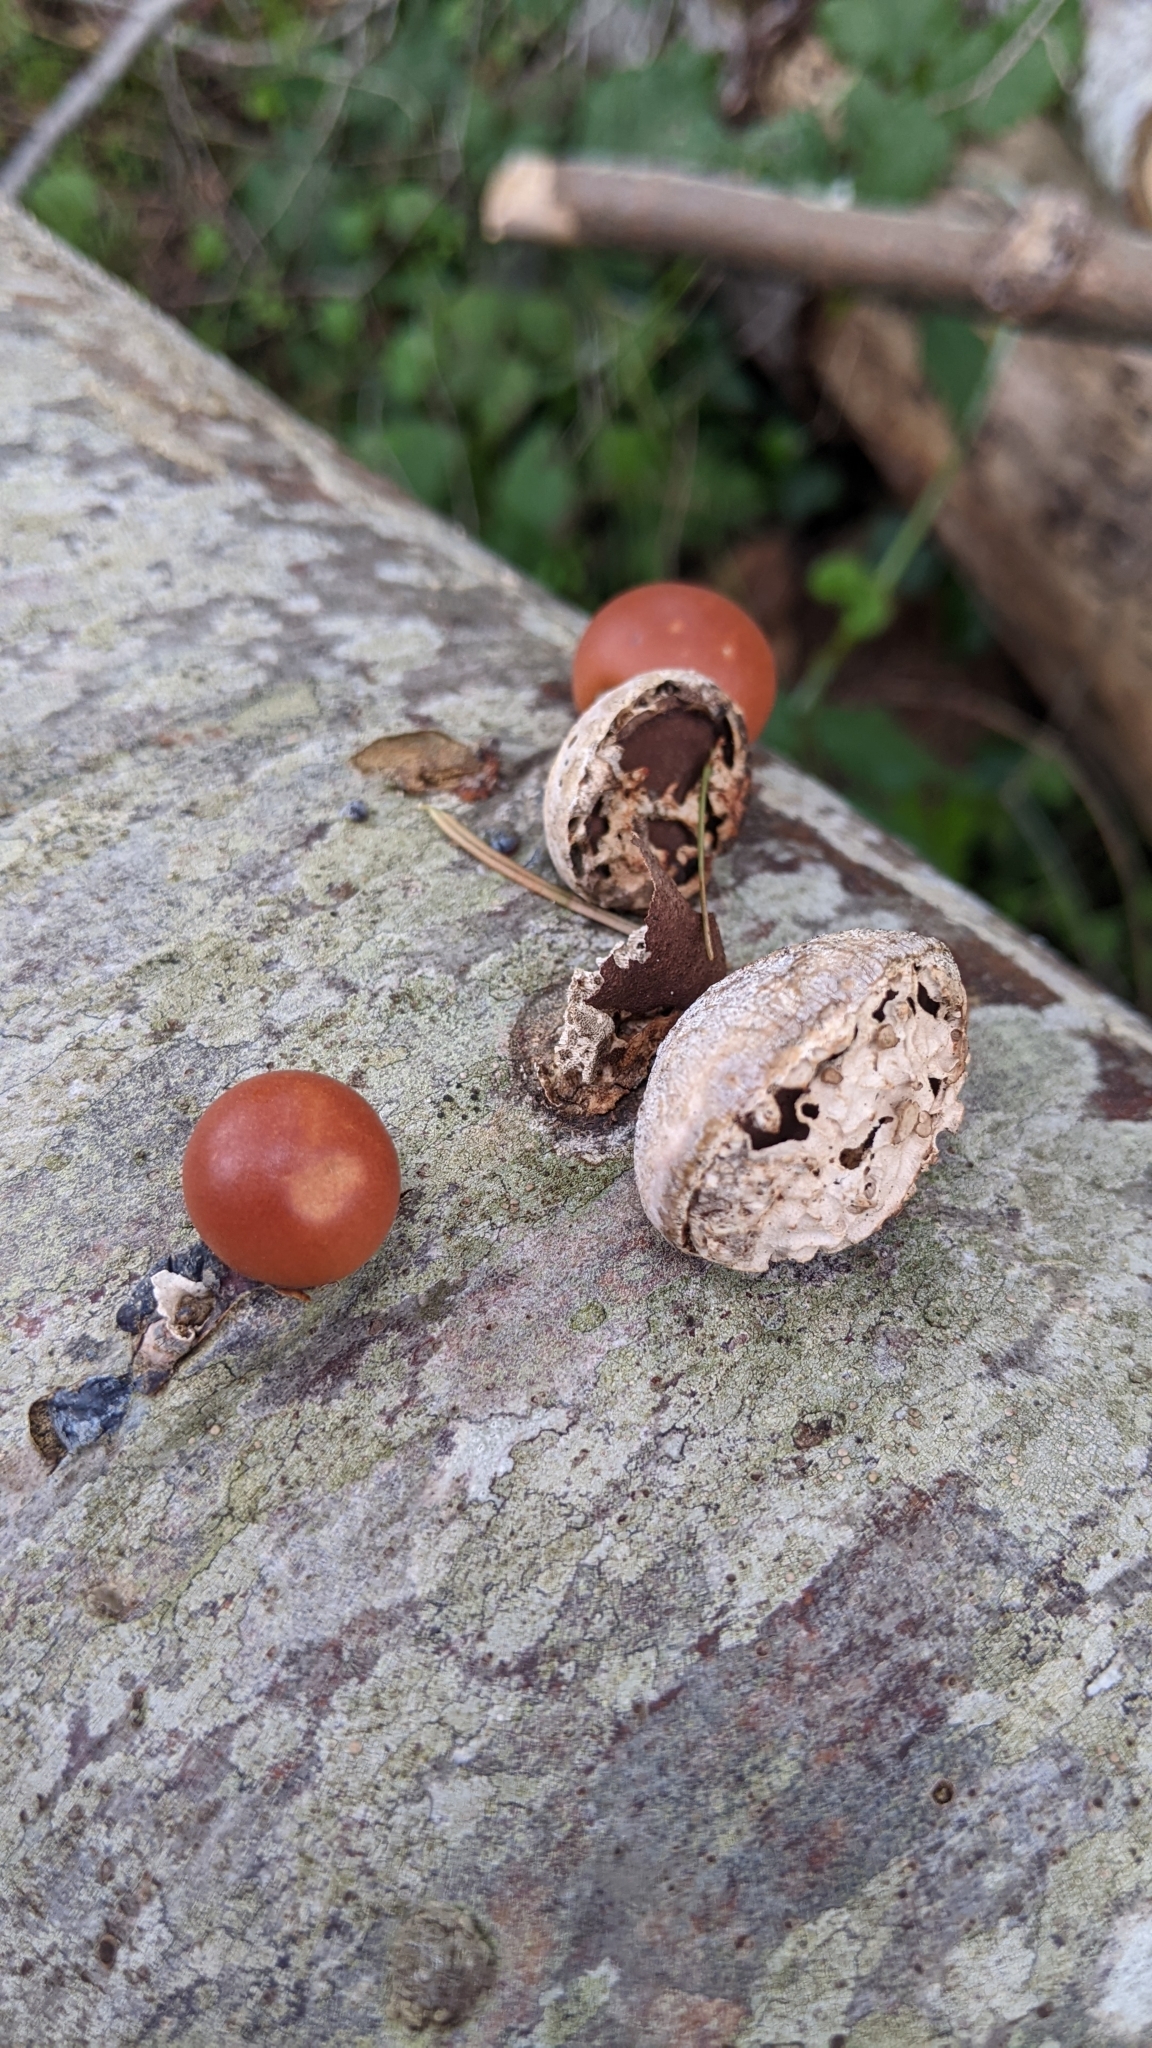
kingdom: Fungi
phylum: Basidiomycota
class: Agaricomycetes
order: Polyporales
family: Polyporaceae
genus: Cryptoporus
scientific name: Cryptoporus volvatus
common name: Veiled polypore
